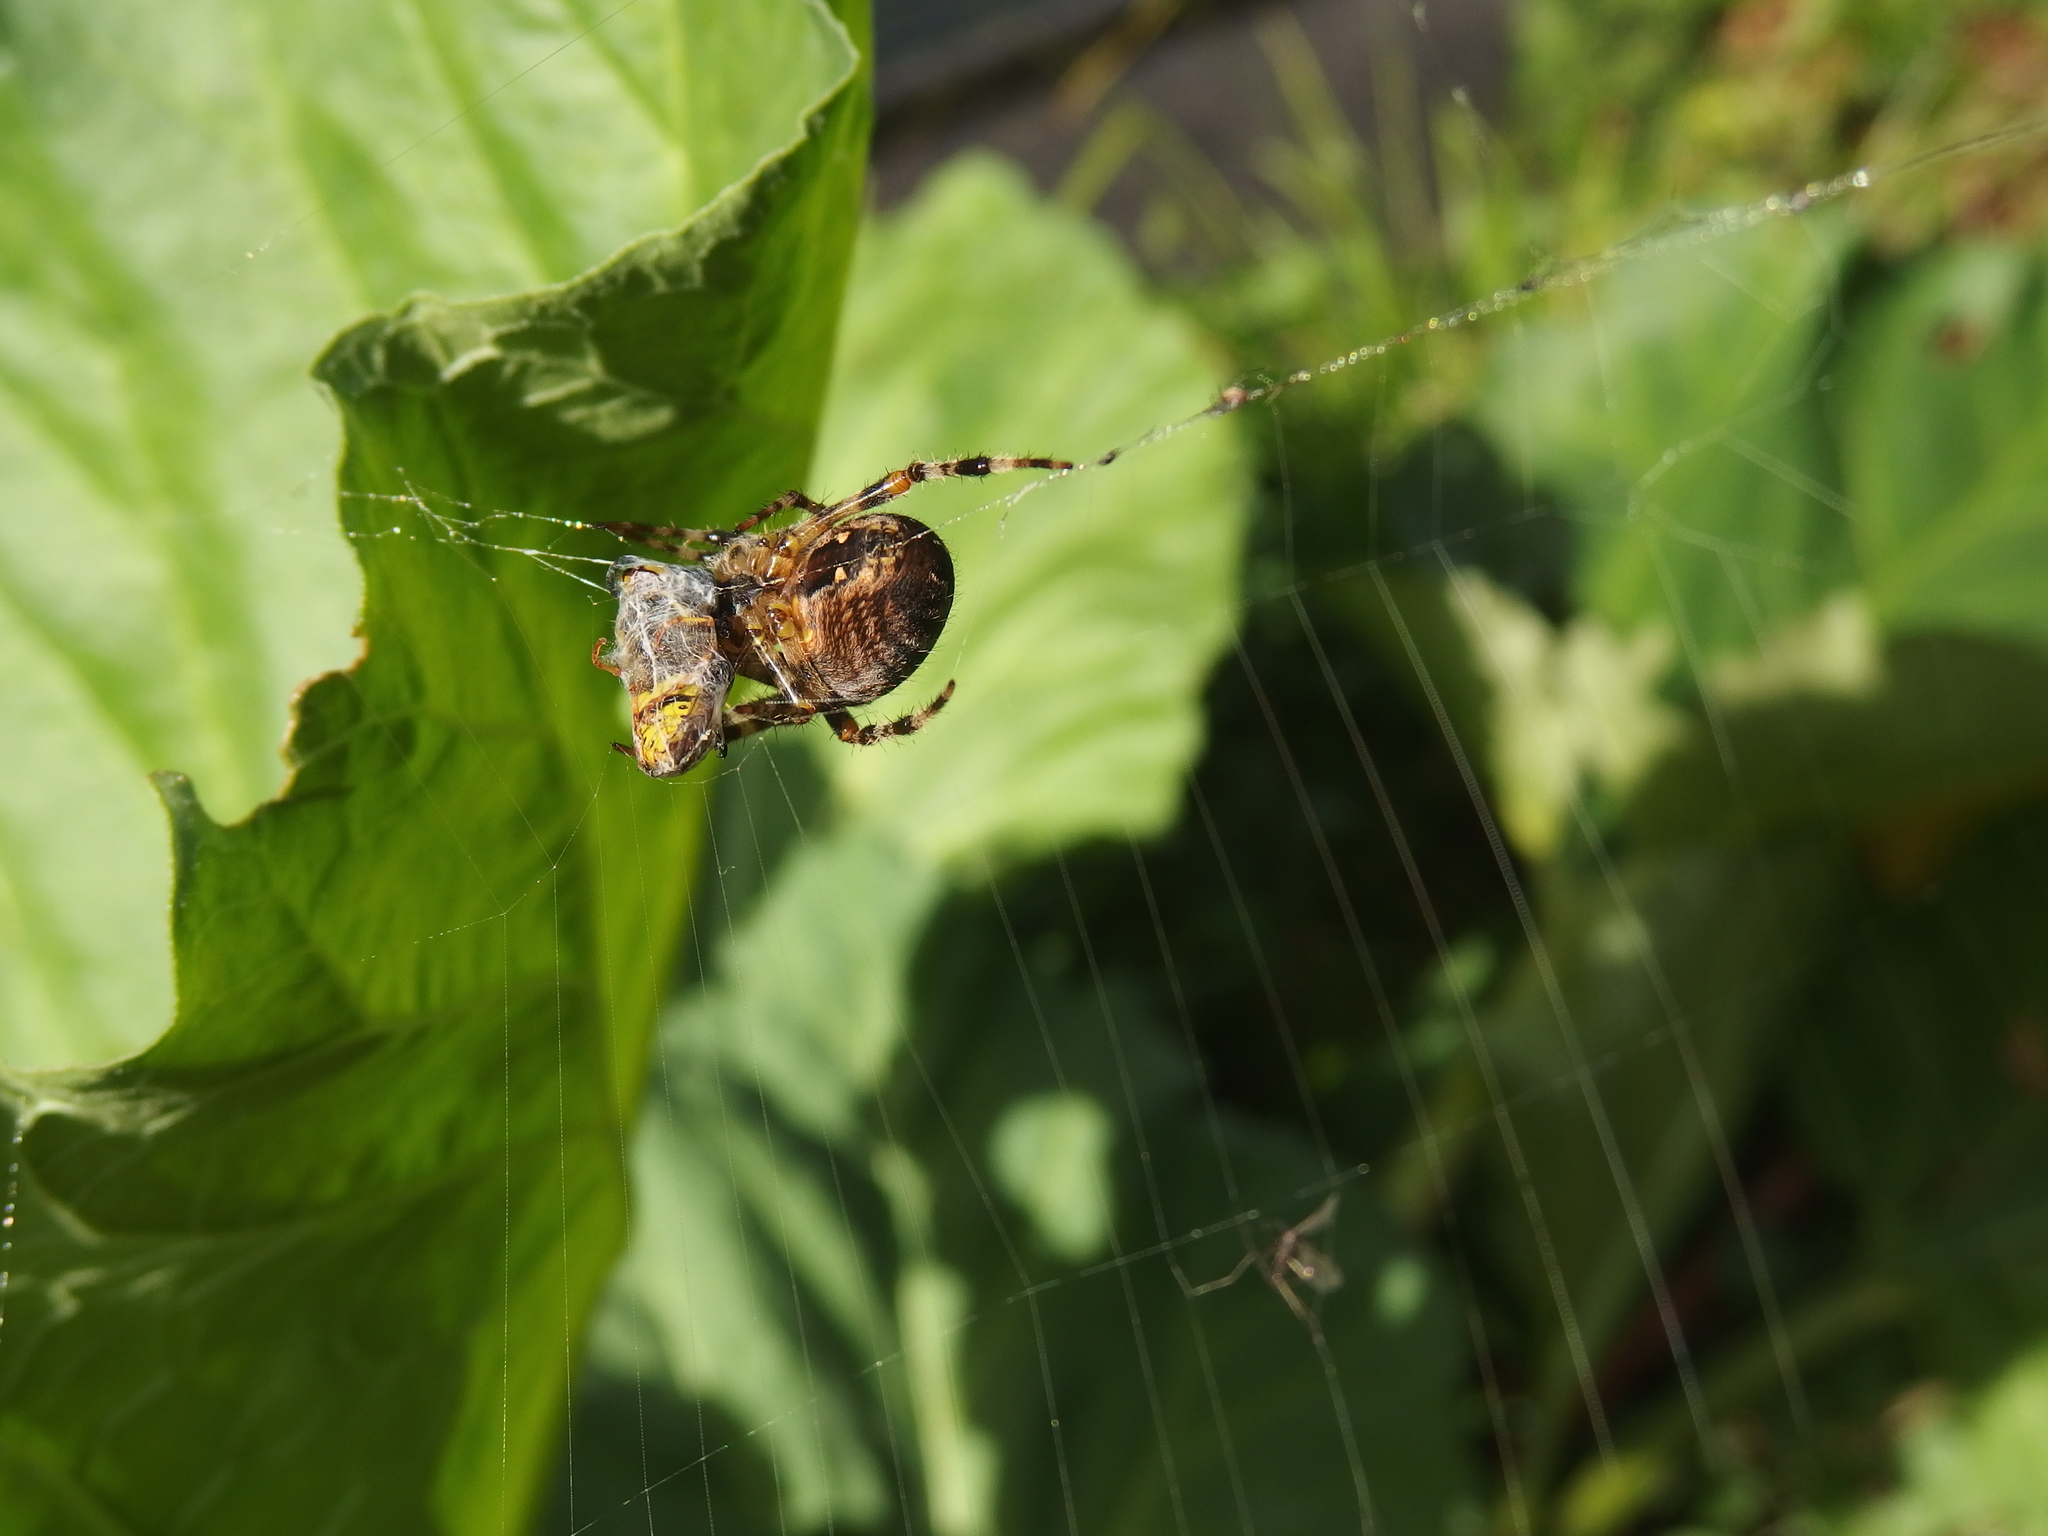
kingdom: Animalia
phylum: Arthropoda
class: Arachnida
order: Araneae
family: Araneidae
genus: Araneus
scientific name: Araneus diadematus
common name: Cross orbweaver
